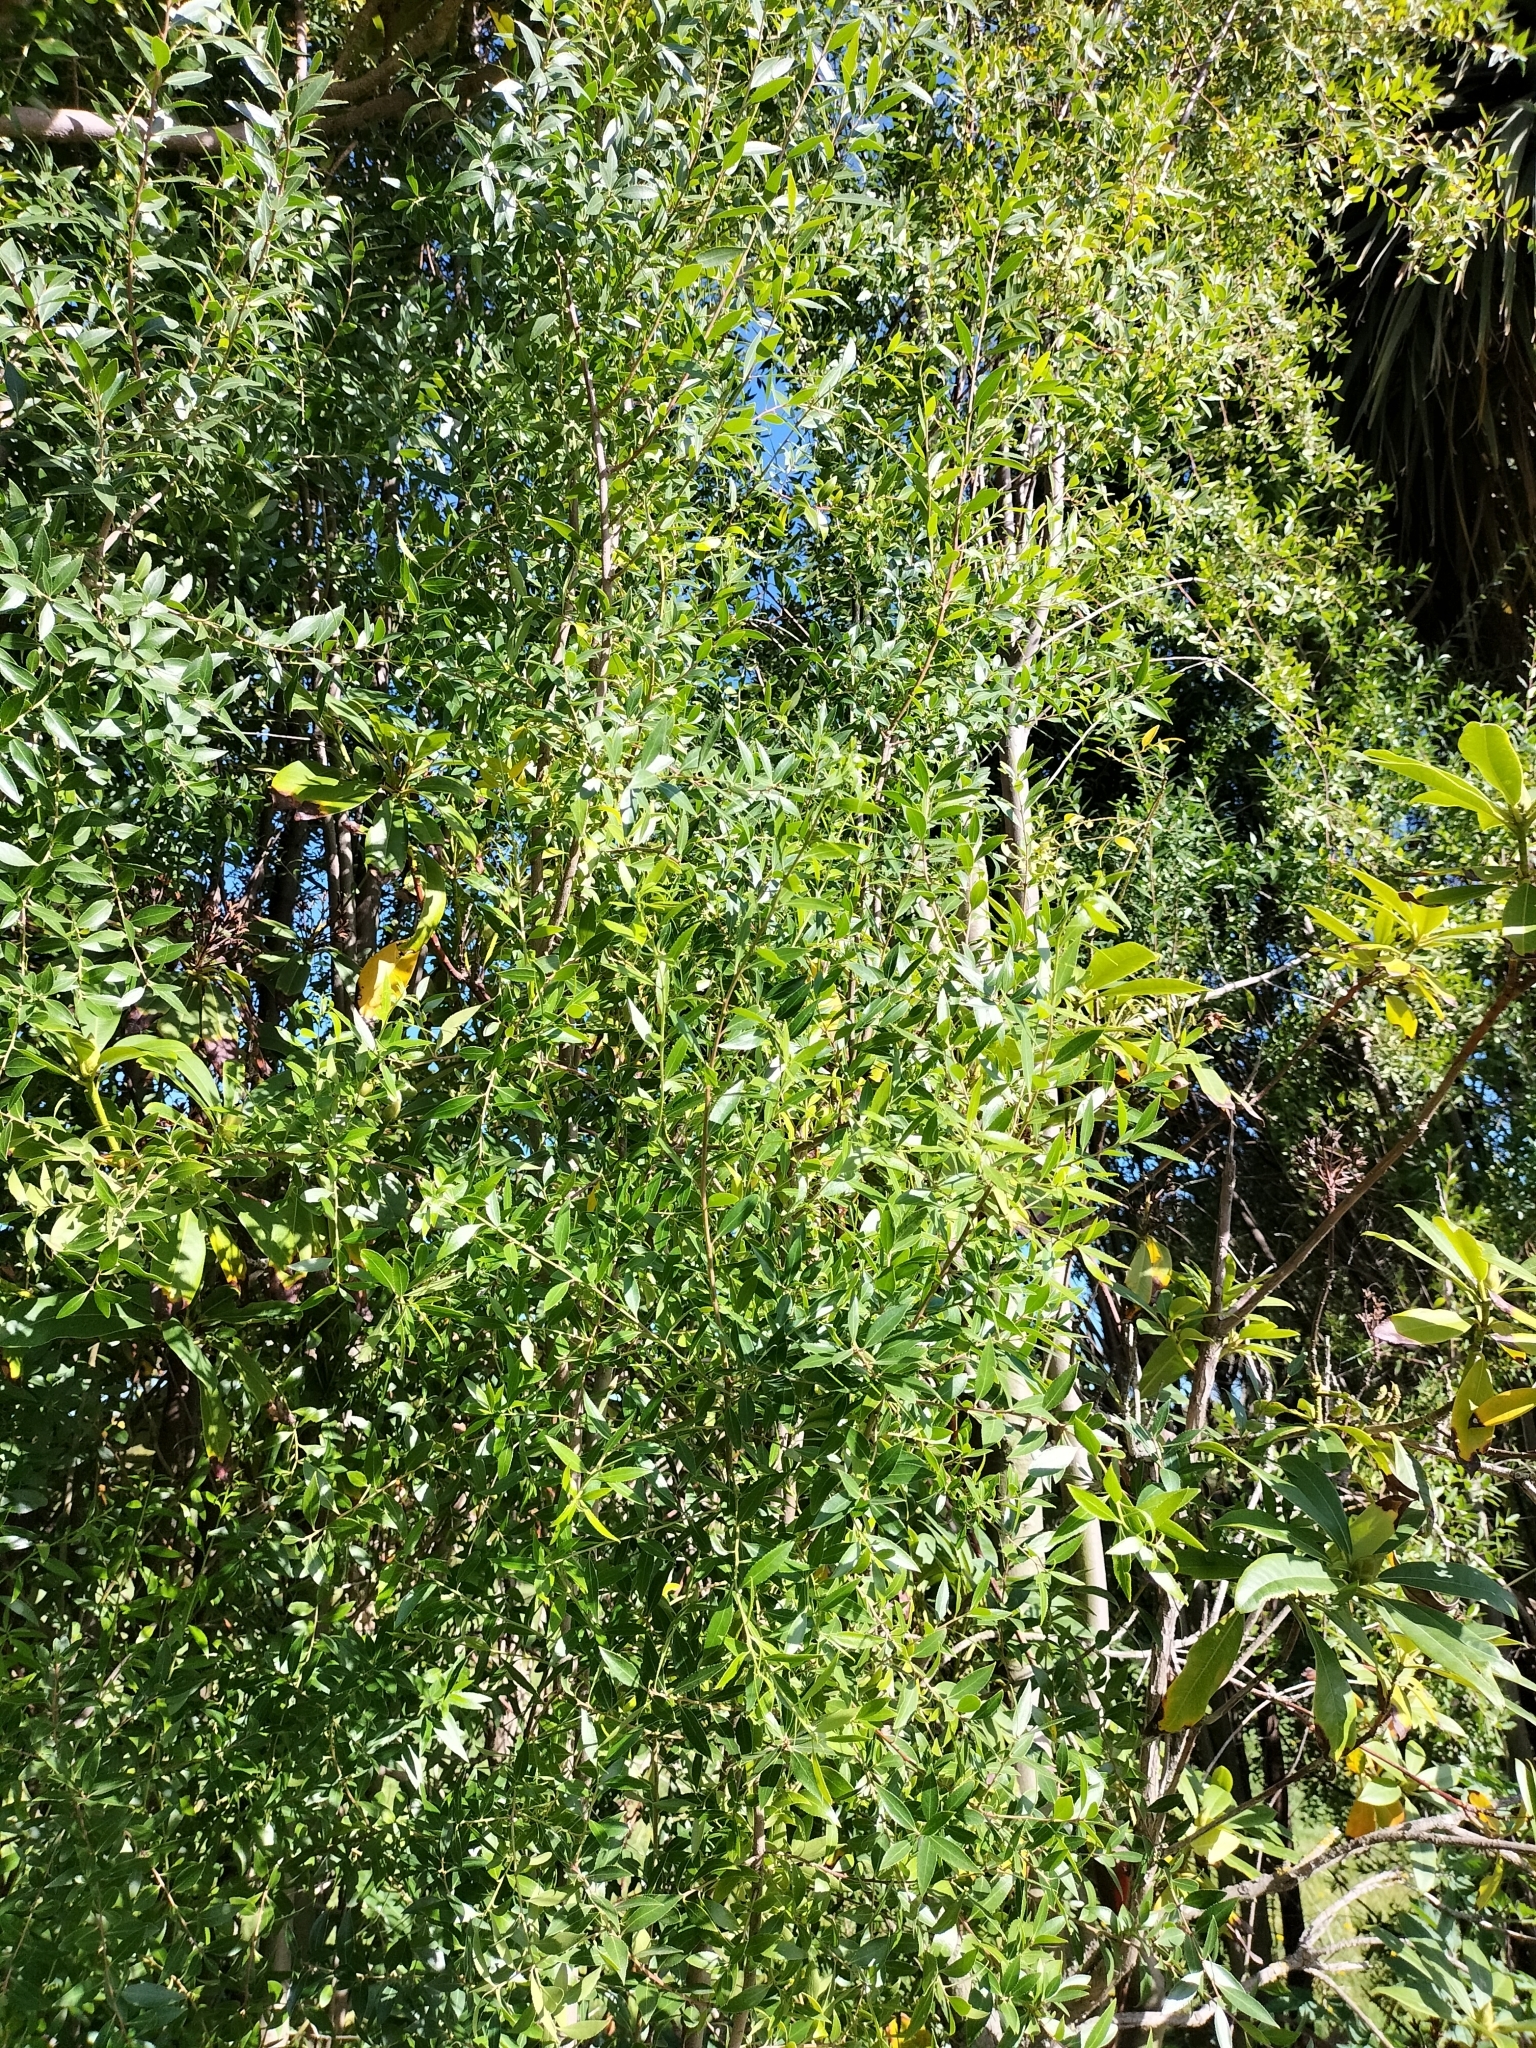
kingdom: Plantae
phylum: Tracheophyta
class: Magnoliopsida
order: Celastrales
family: Celastraceae
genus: Maytenus
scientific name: Maytenus boaria
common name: Mayten
